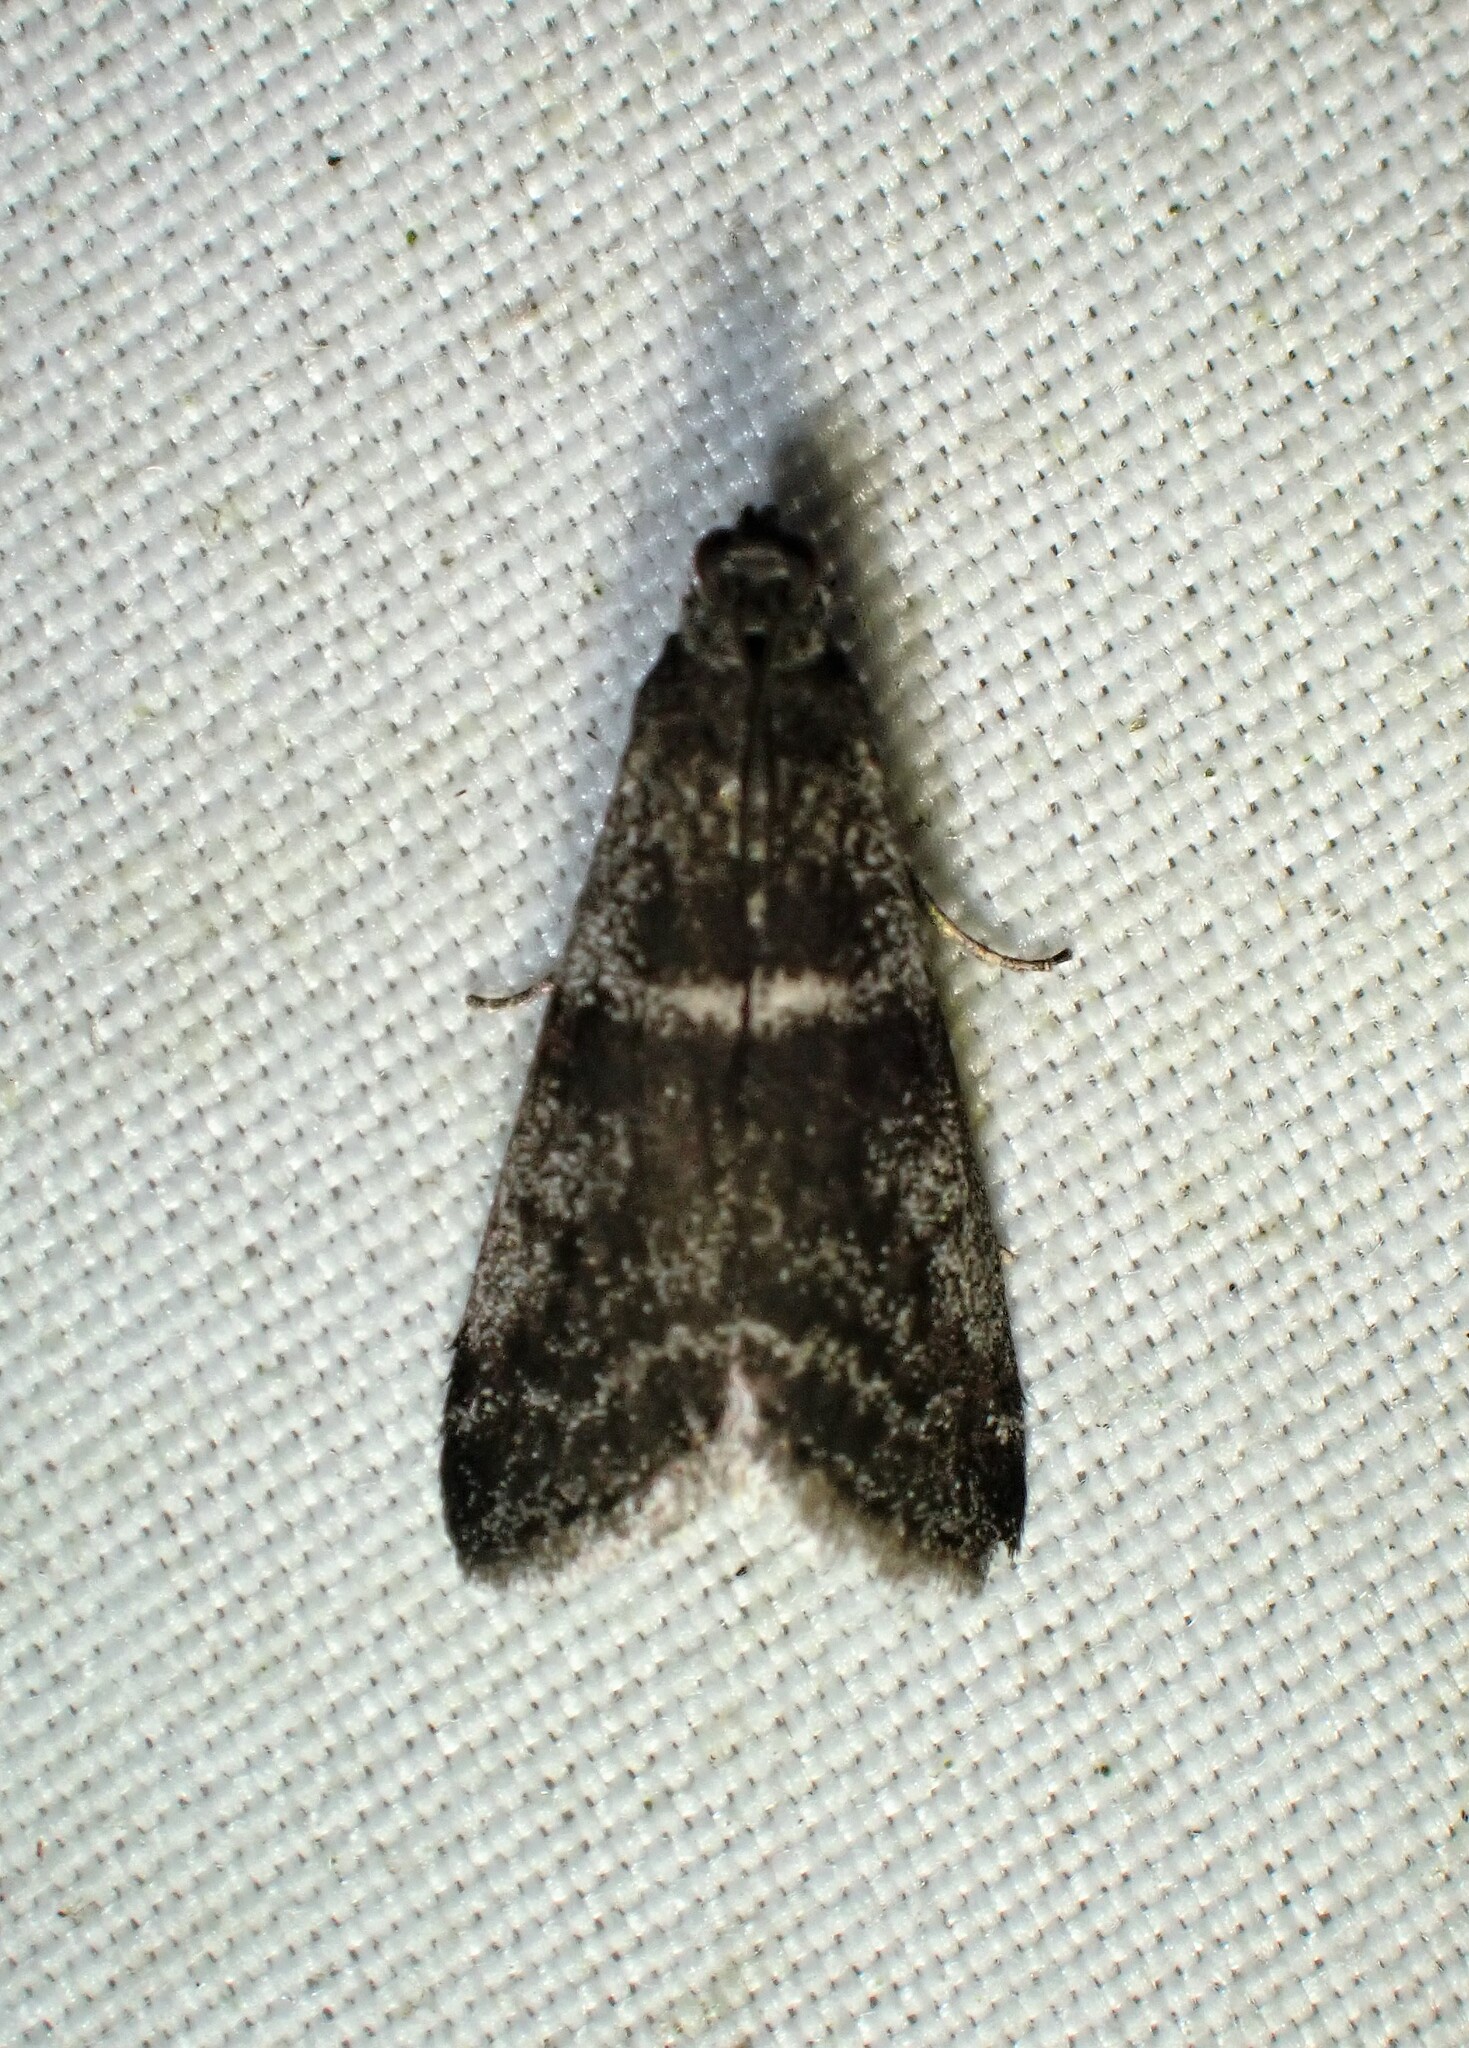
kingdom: Animalia
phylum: Arthropoda
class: Insecta
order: Lepidoptera
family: Pyralidae
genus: Apomyelois
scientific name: Apomyelois bistriatella
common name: Heath knot-horn
